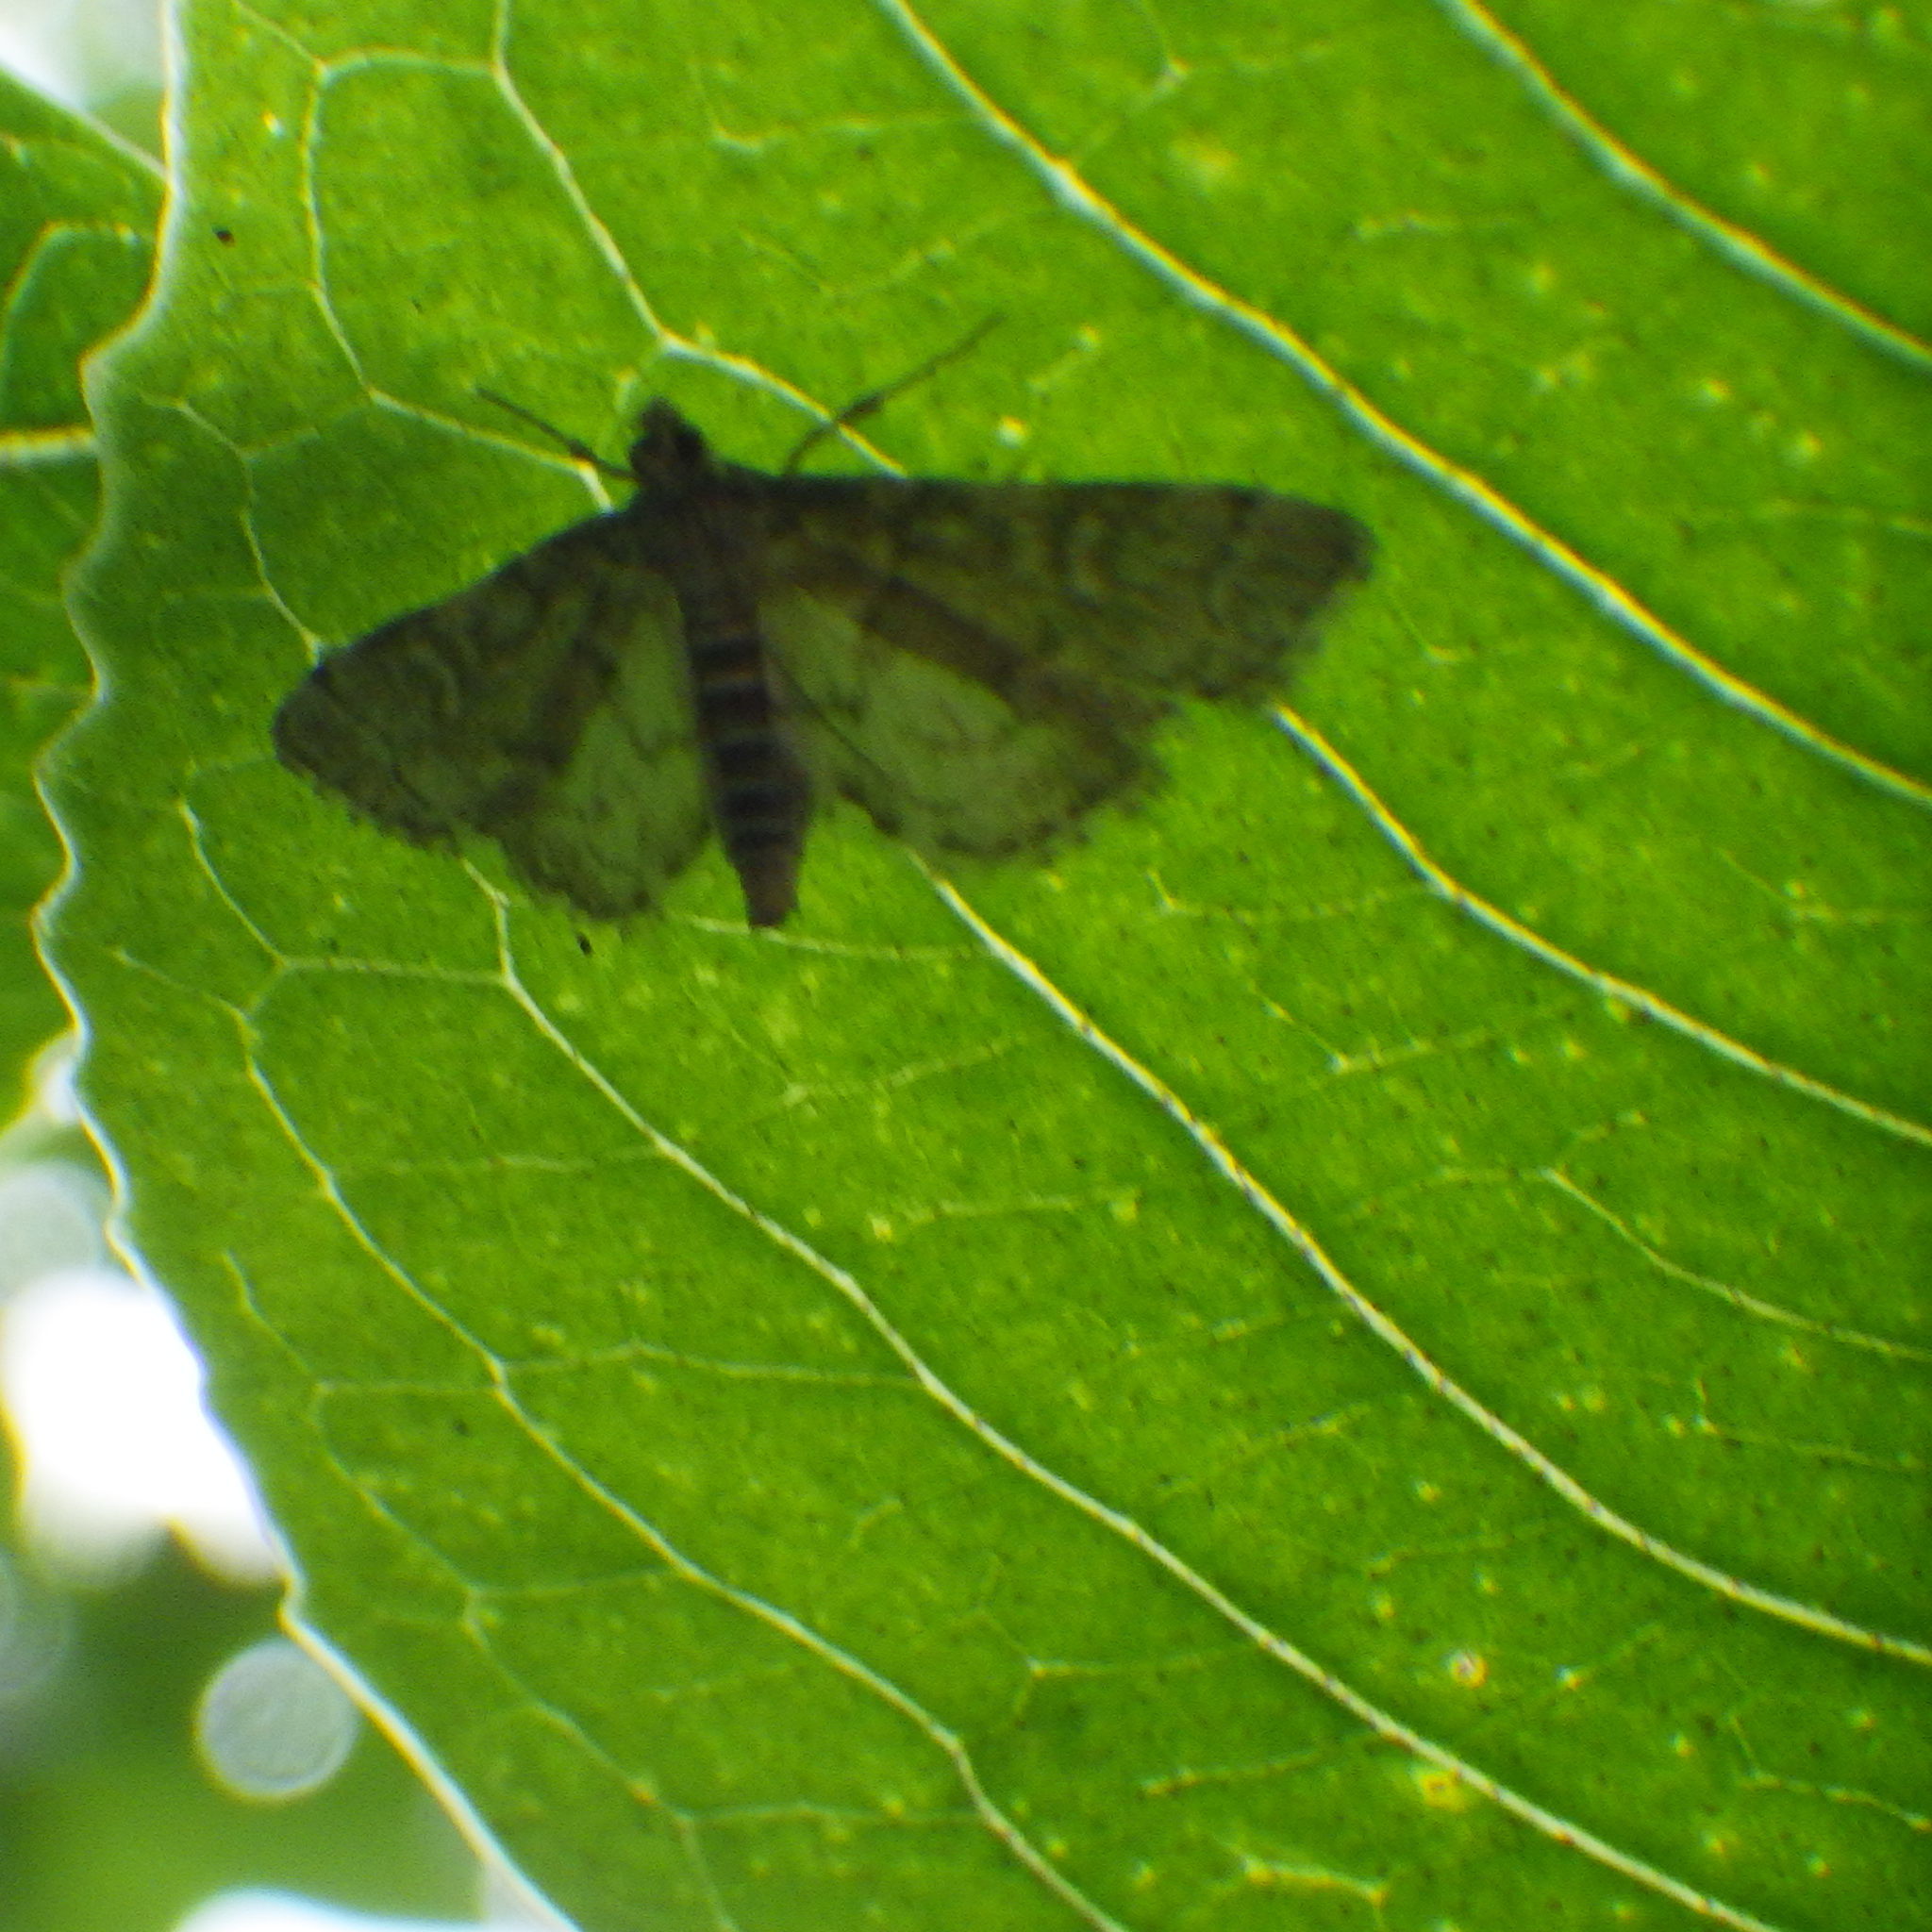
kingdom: Animalia
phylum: Arthropoda
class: Insecta
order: Lepidoptera
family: Crambidae
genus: Anageshna
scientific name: Anageshna primordialis
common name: Yellow-spotted webworm moth
